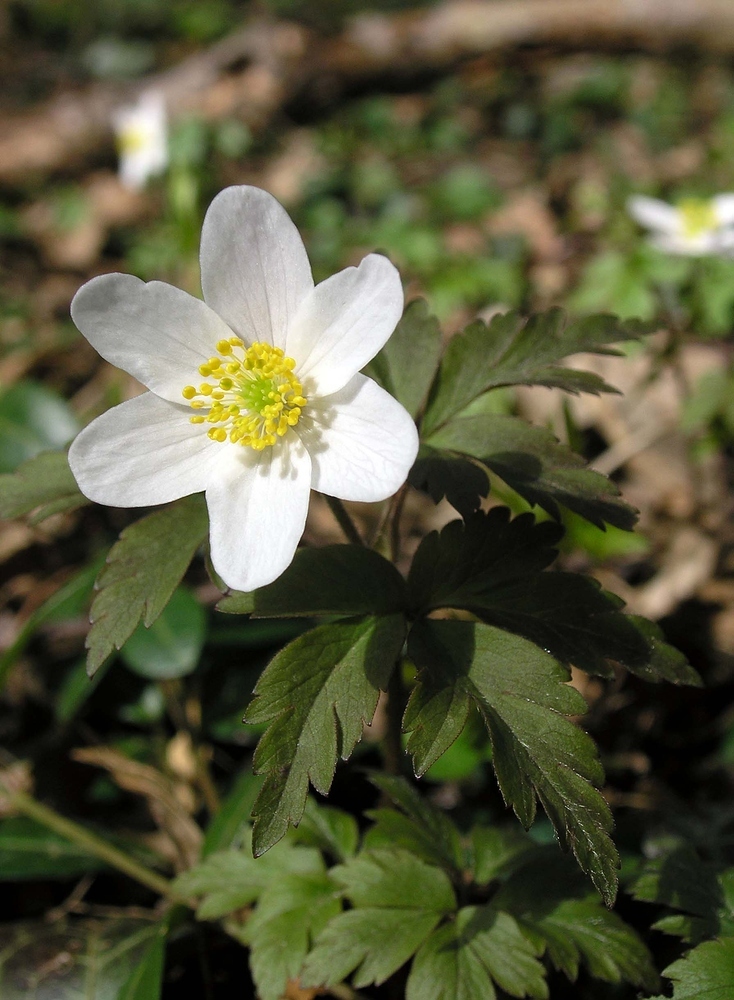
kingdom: Plantae
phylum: Tracheophyta
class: Magnoliopsida
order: Ranunculales
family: Ranunculaceae
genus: Anemone
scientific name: Anemone nemorosa
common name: Wood anemone
